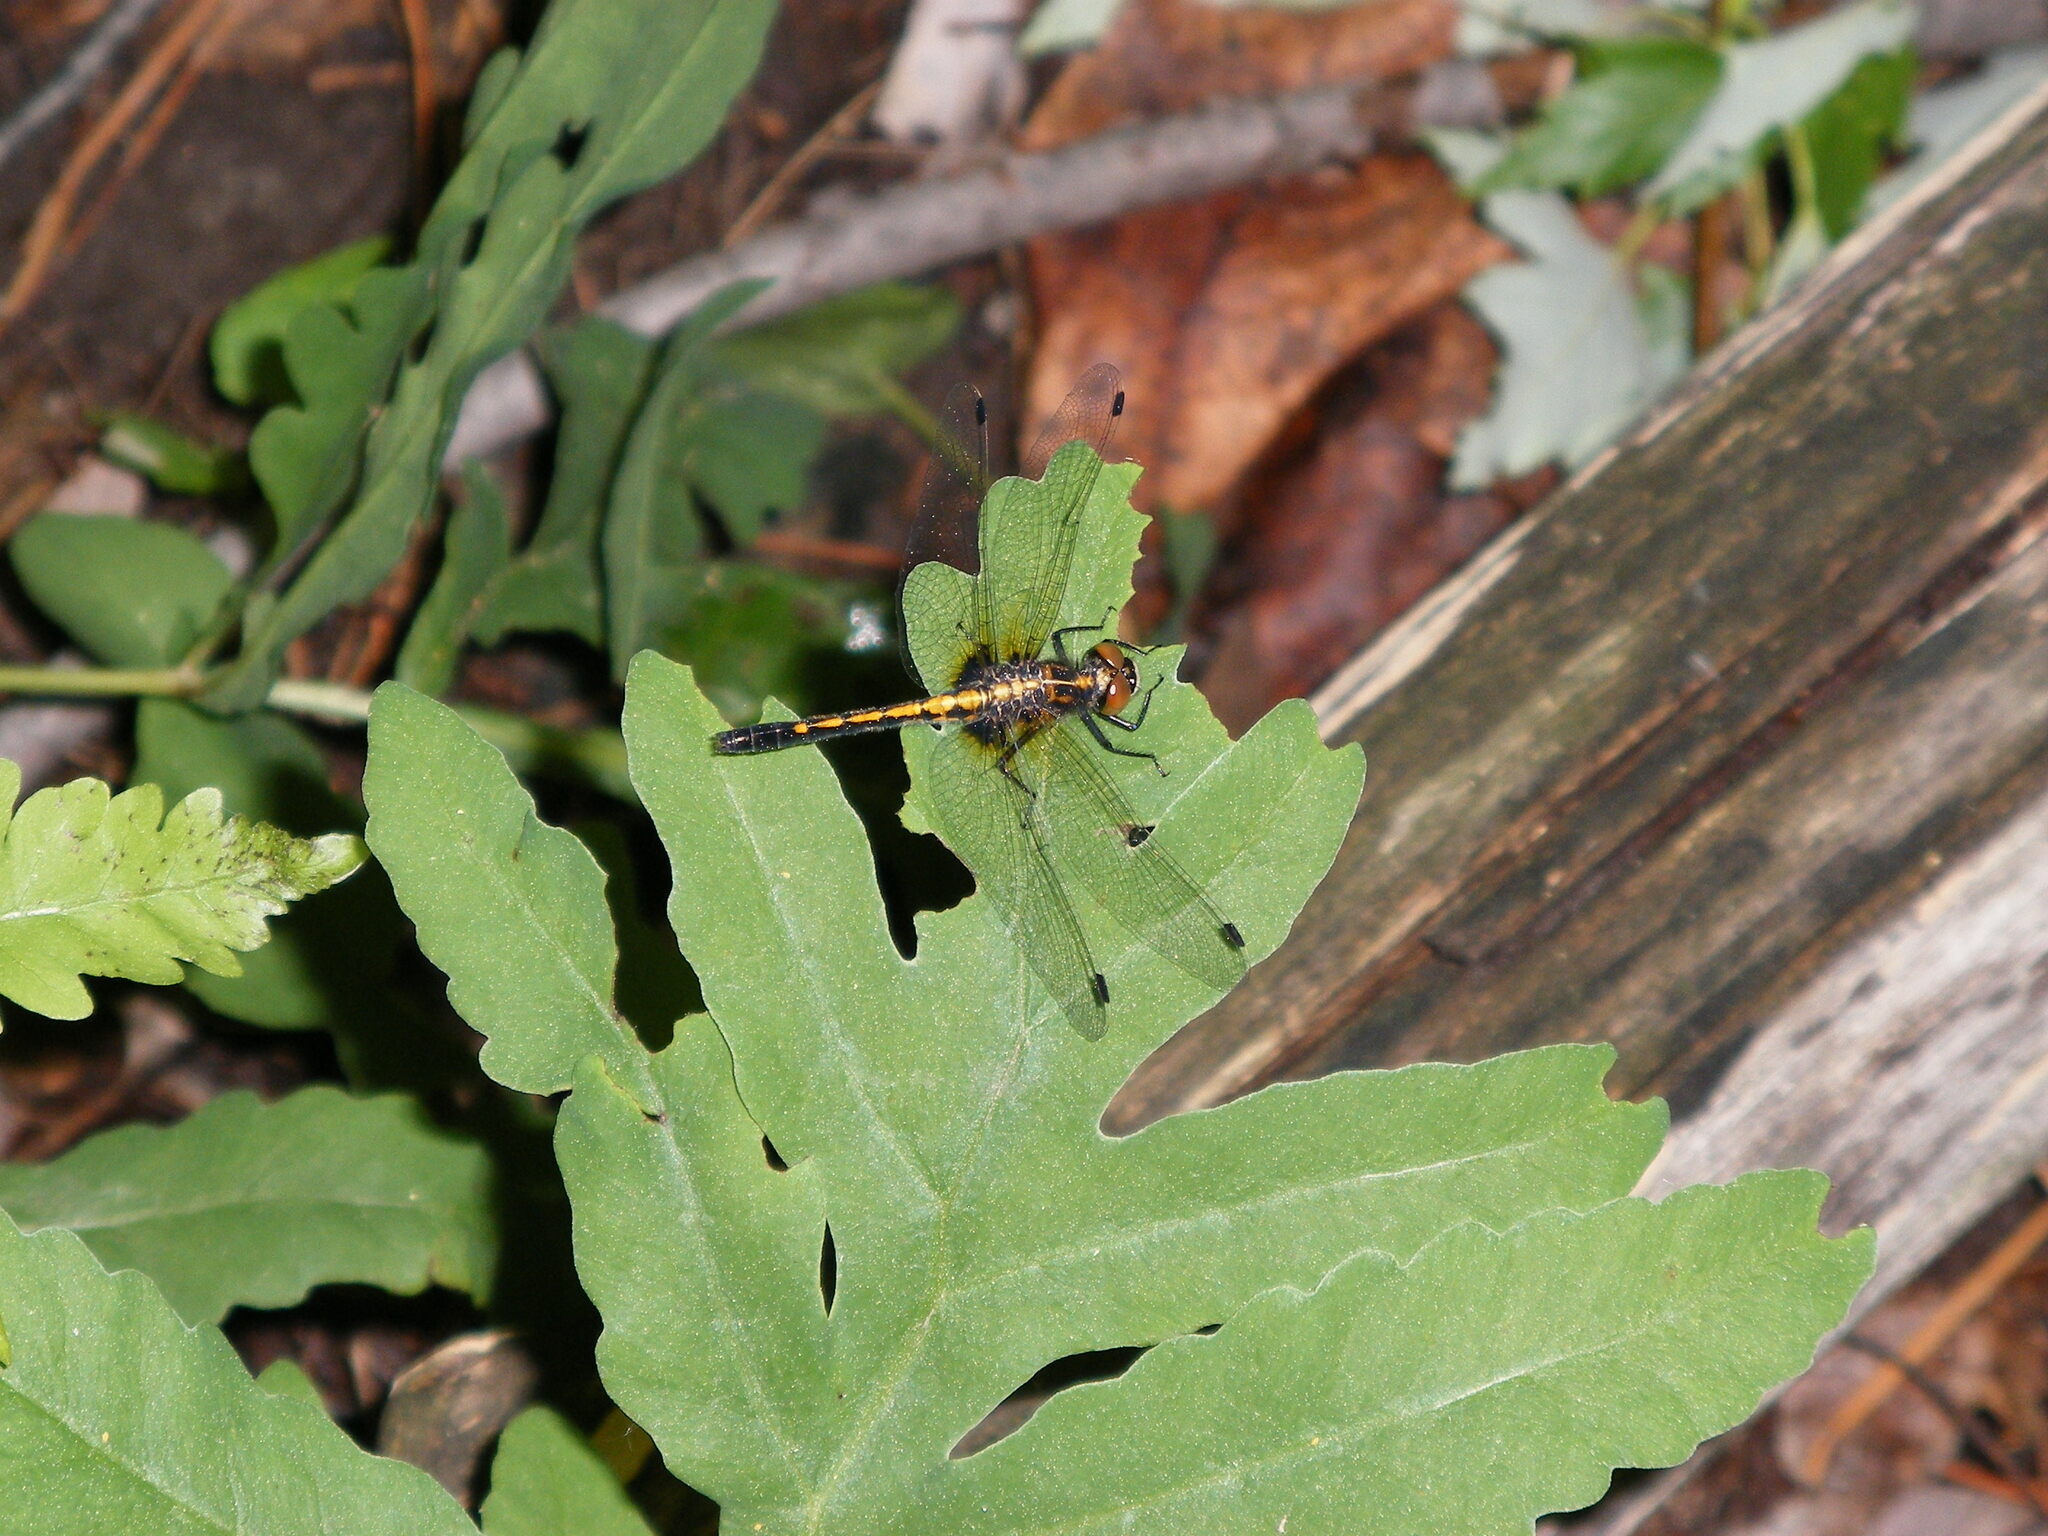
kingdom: Animalia
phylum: Arthropoda
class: Insecta
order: Odonata
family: Libellulidae
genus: Leucorrhinia
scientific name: Leucorrhinia intacta
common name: Dot-tailed whiteface
